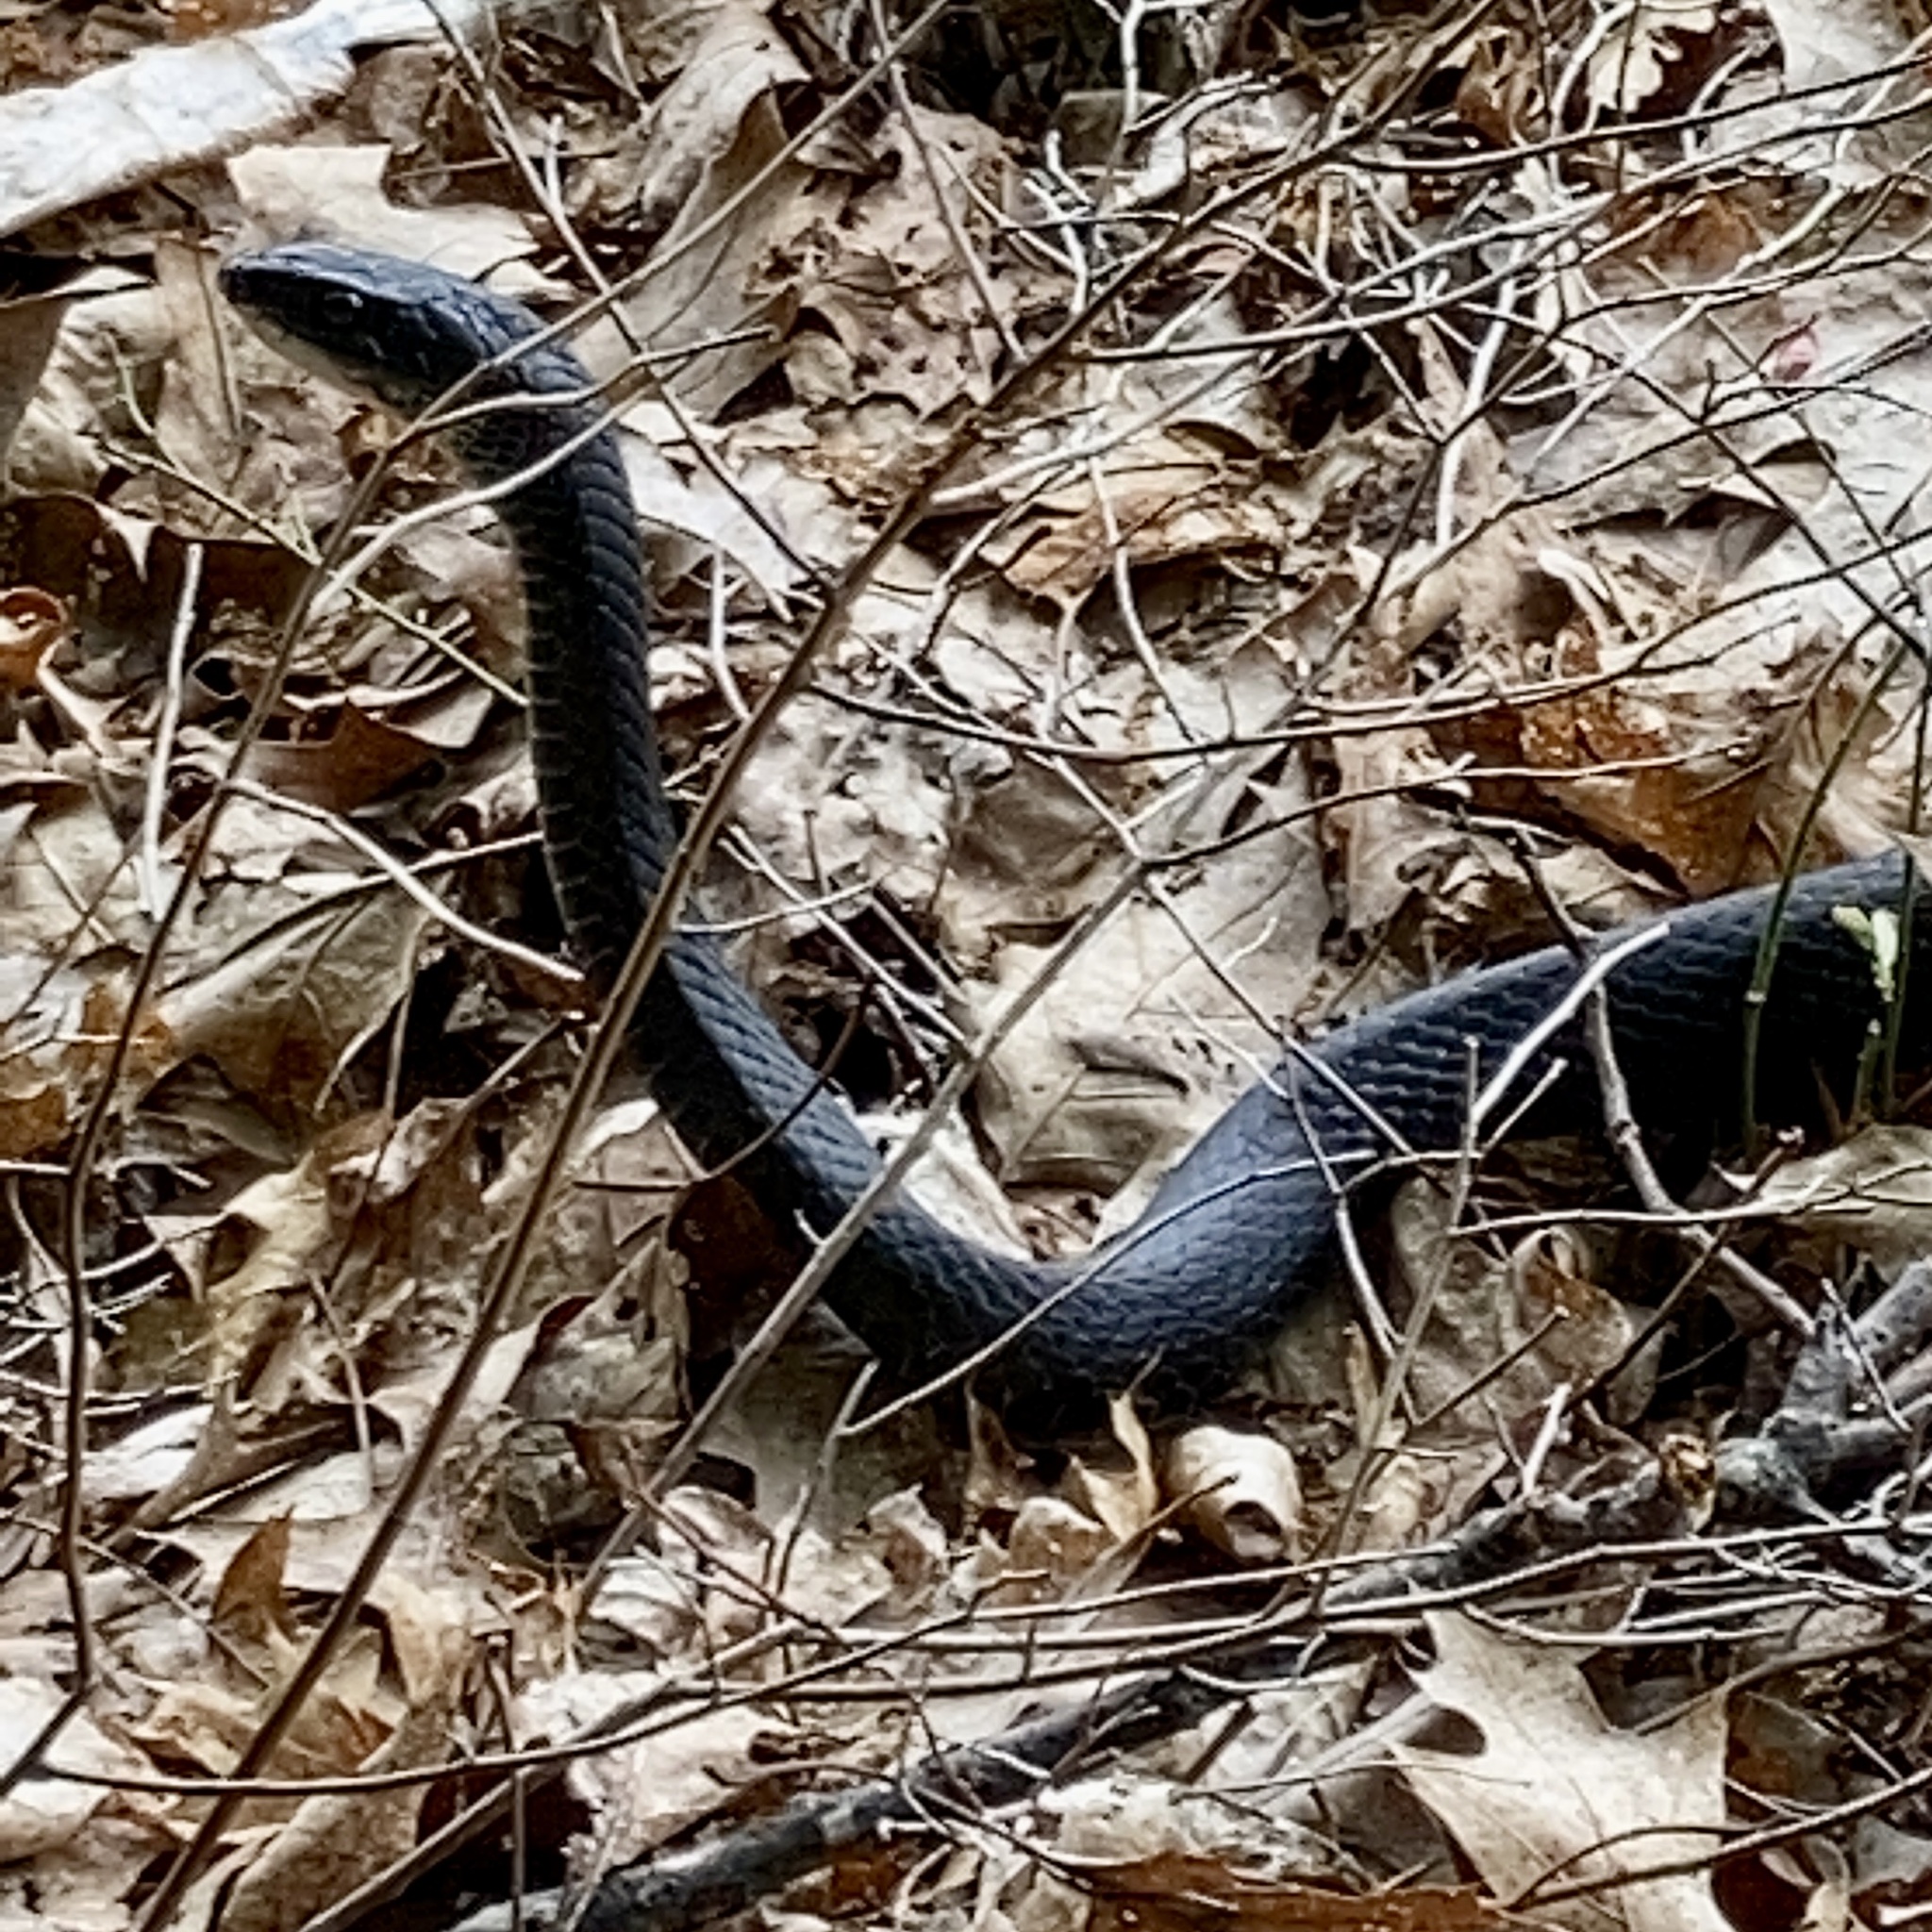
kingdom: Animalia
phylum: Chordata
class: Squamata
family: Colubridae
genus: Coluber
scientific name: Coluber constrictor
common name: Eastern racer
